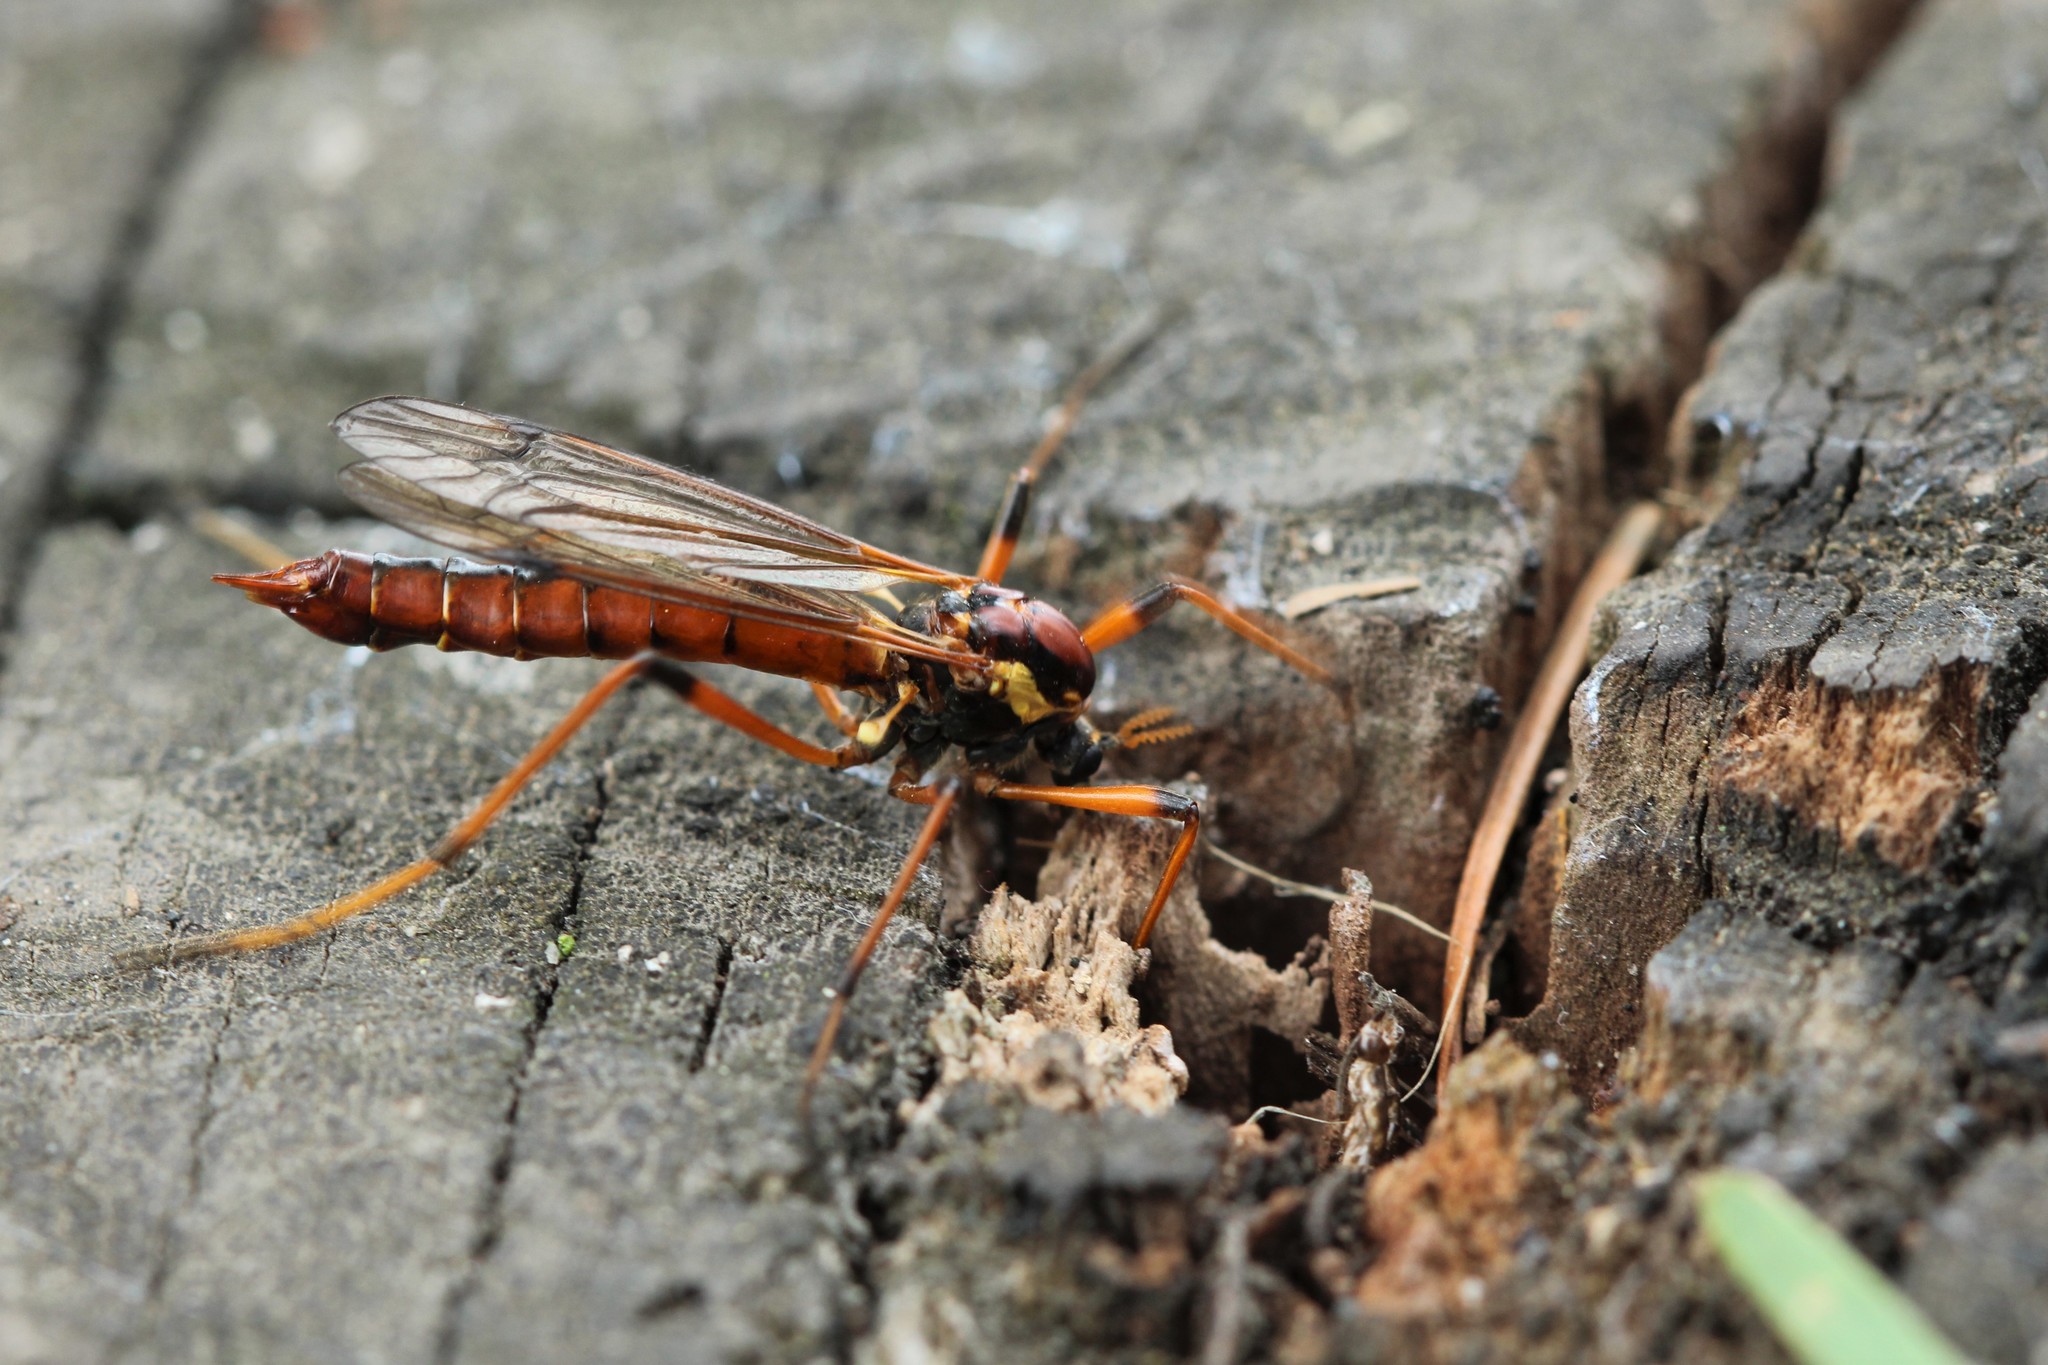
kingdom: Animalia
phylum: Arthropoda
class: Insecta
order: Diptera
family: Tipulidae
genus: Phoroctenia
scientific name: Phoroctenia vittata
